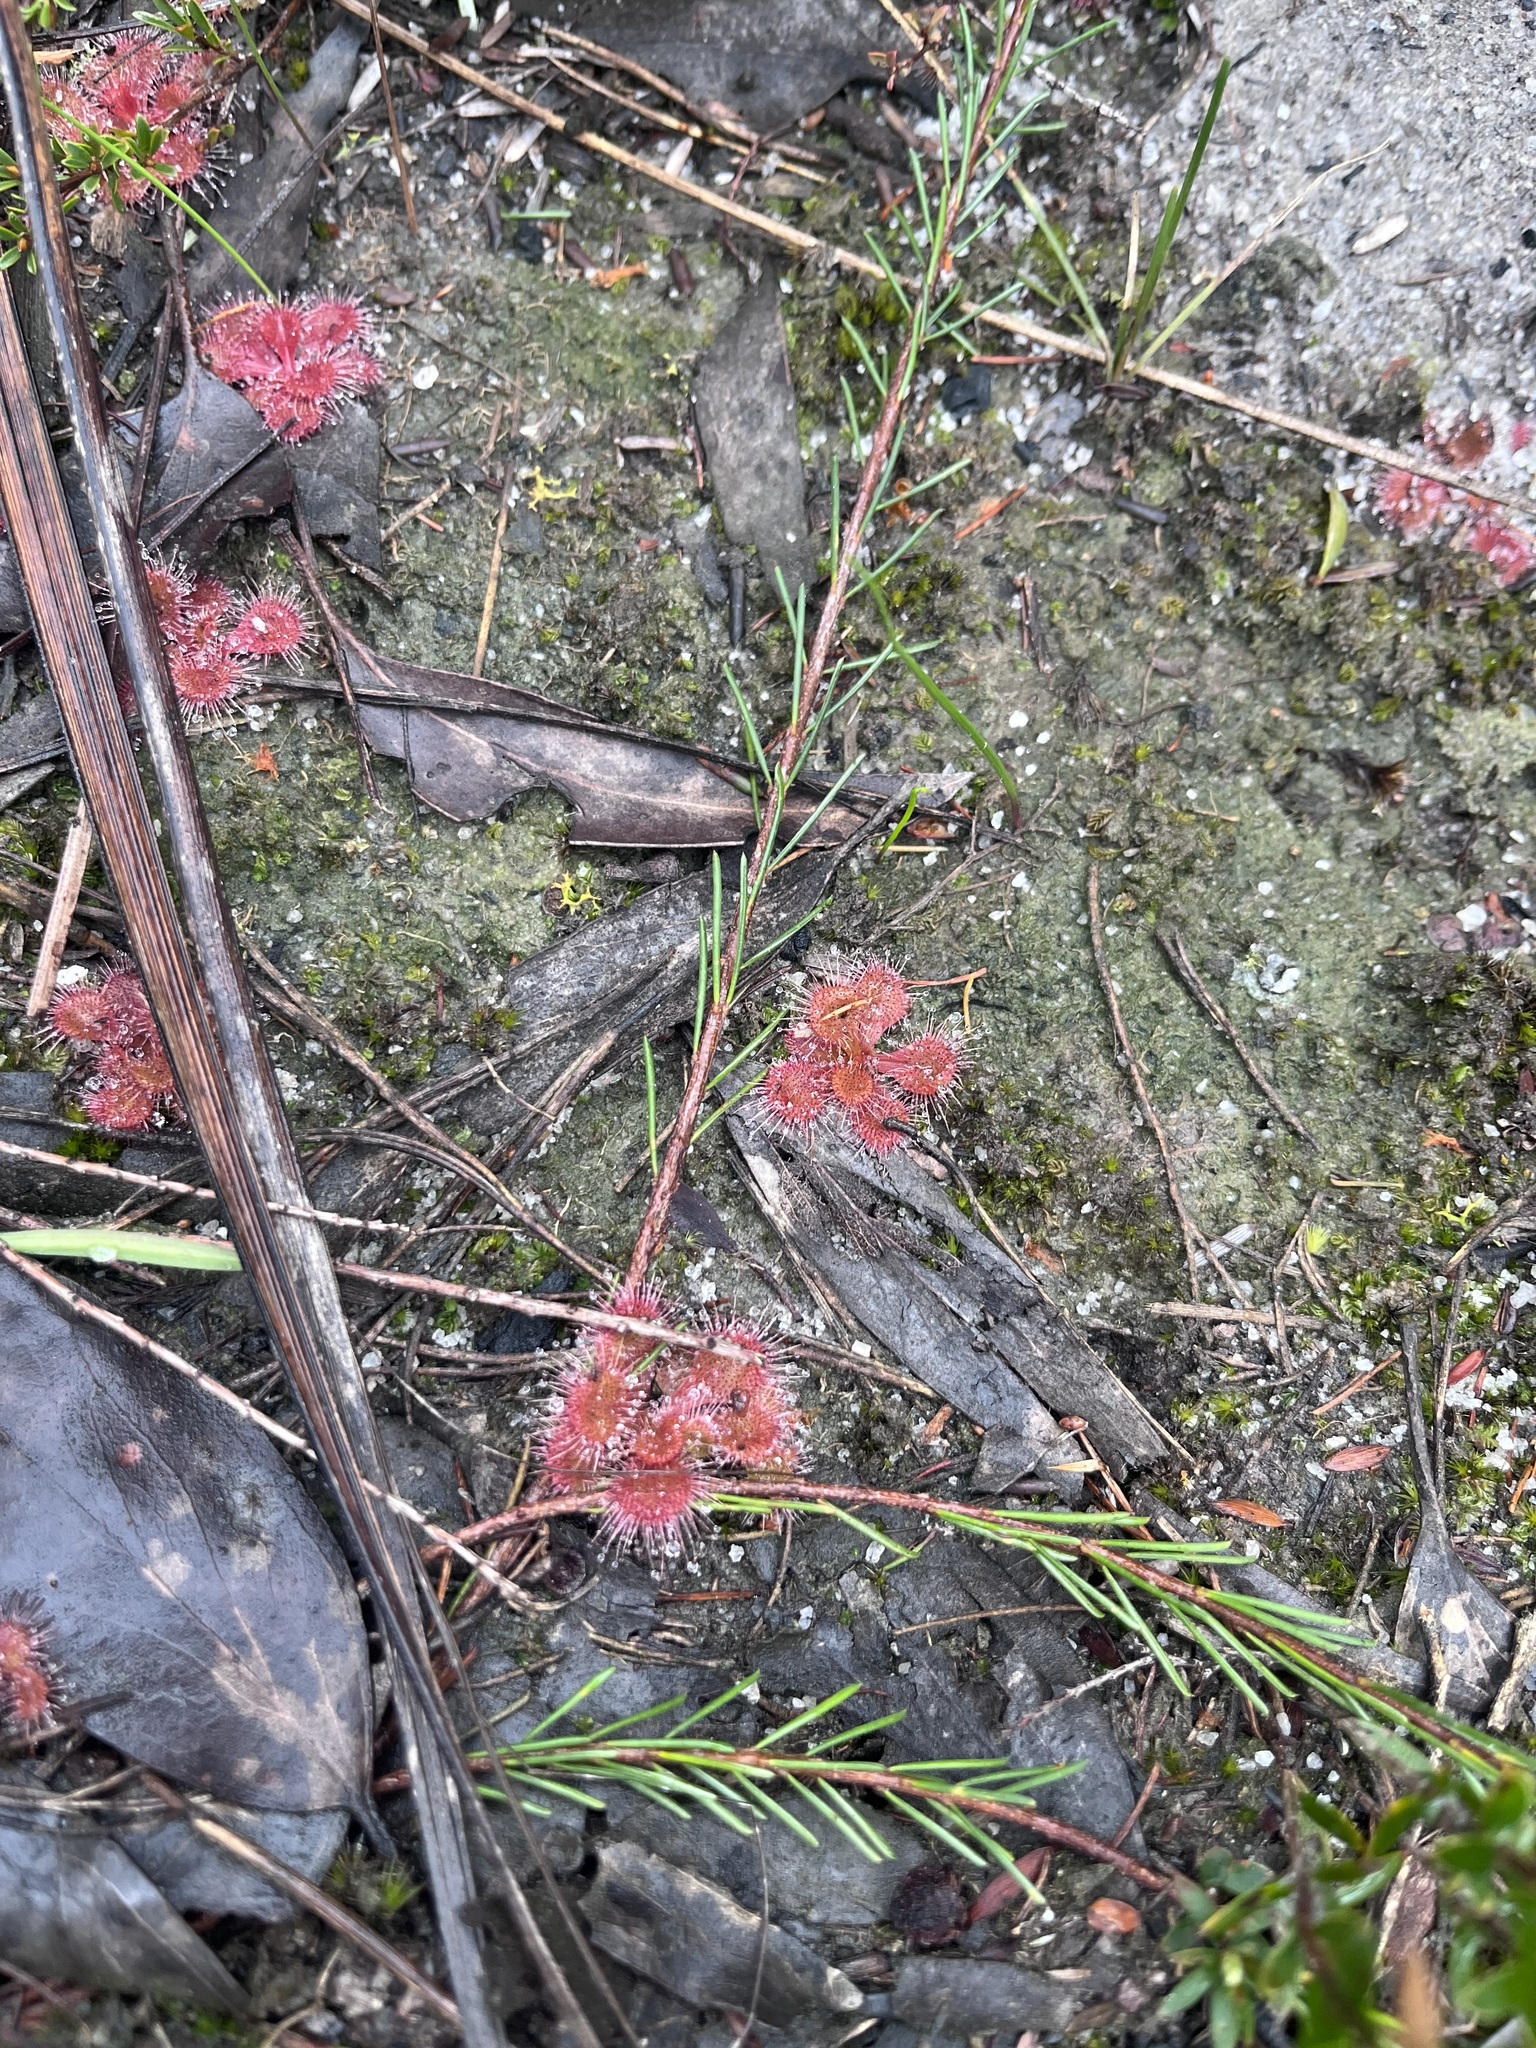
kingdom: Plantae
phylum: Tracheophyta
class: Magnoliopsida
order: Caryophyllales
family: Droseraceae
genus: Drosera
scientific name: Drosera aberrans
